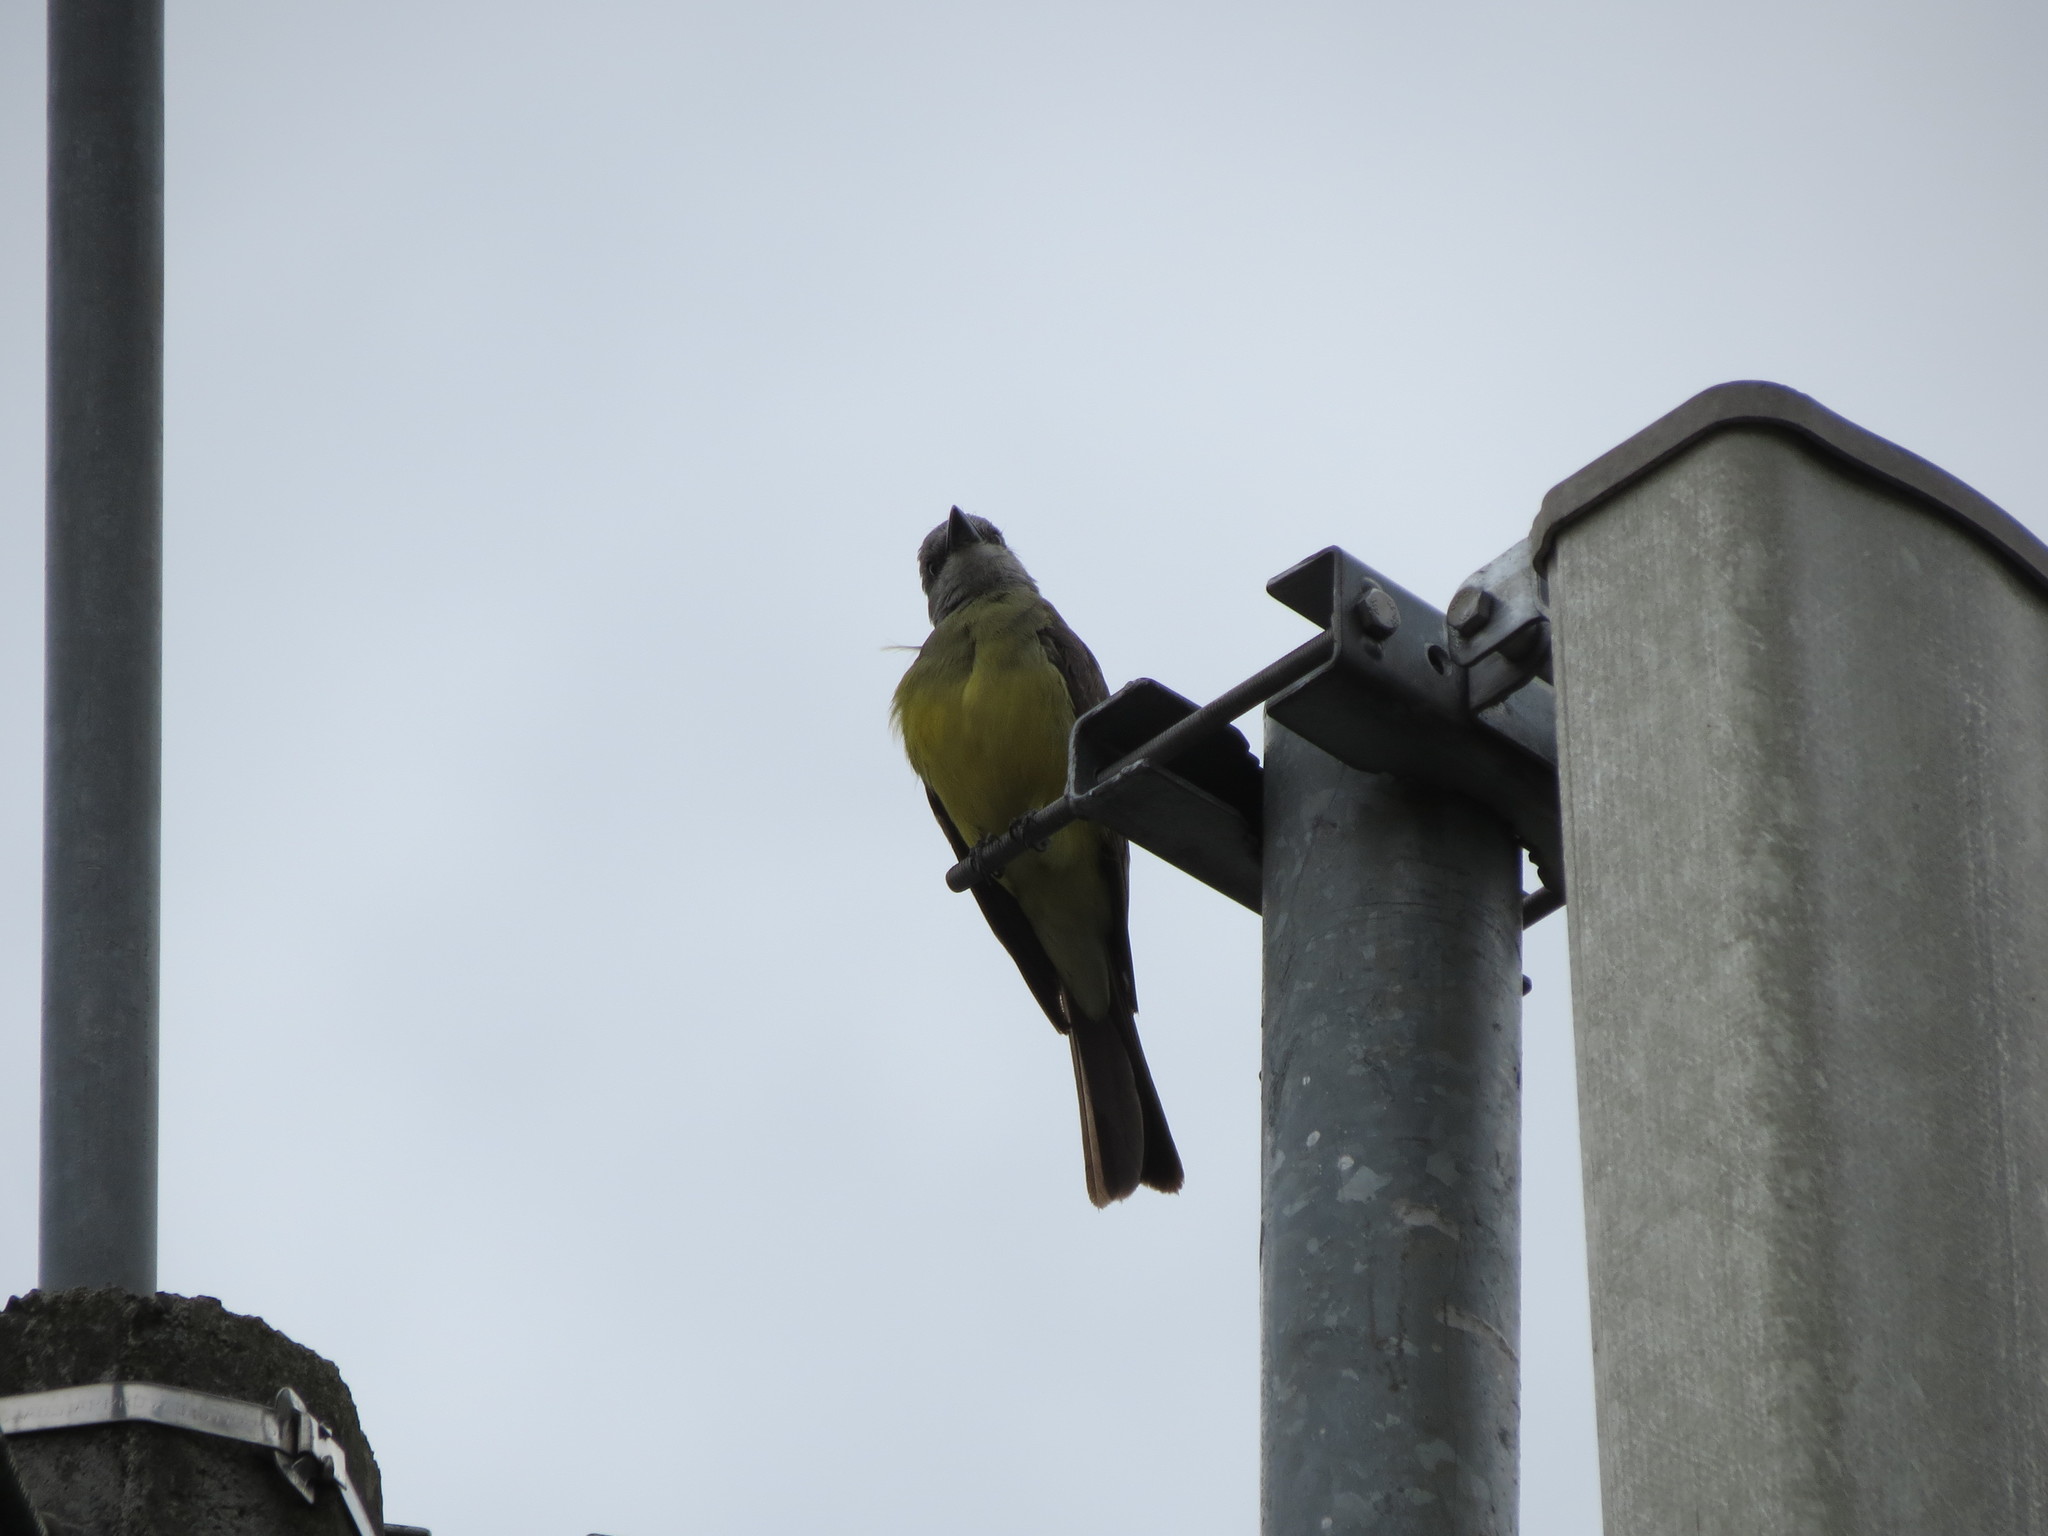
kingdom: Animalia
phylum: Chordata
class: Aves
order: Passeriformes
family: Tyrannidae
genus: Tyrannus
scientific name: Tyrannus melancholicus
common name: Tropical kingbird
